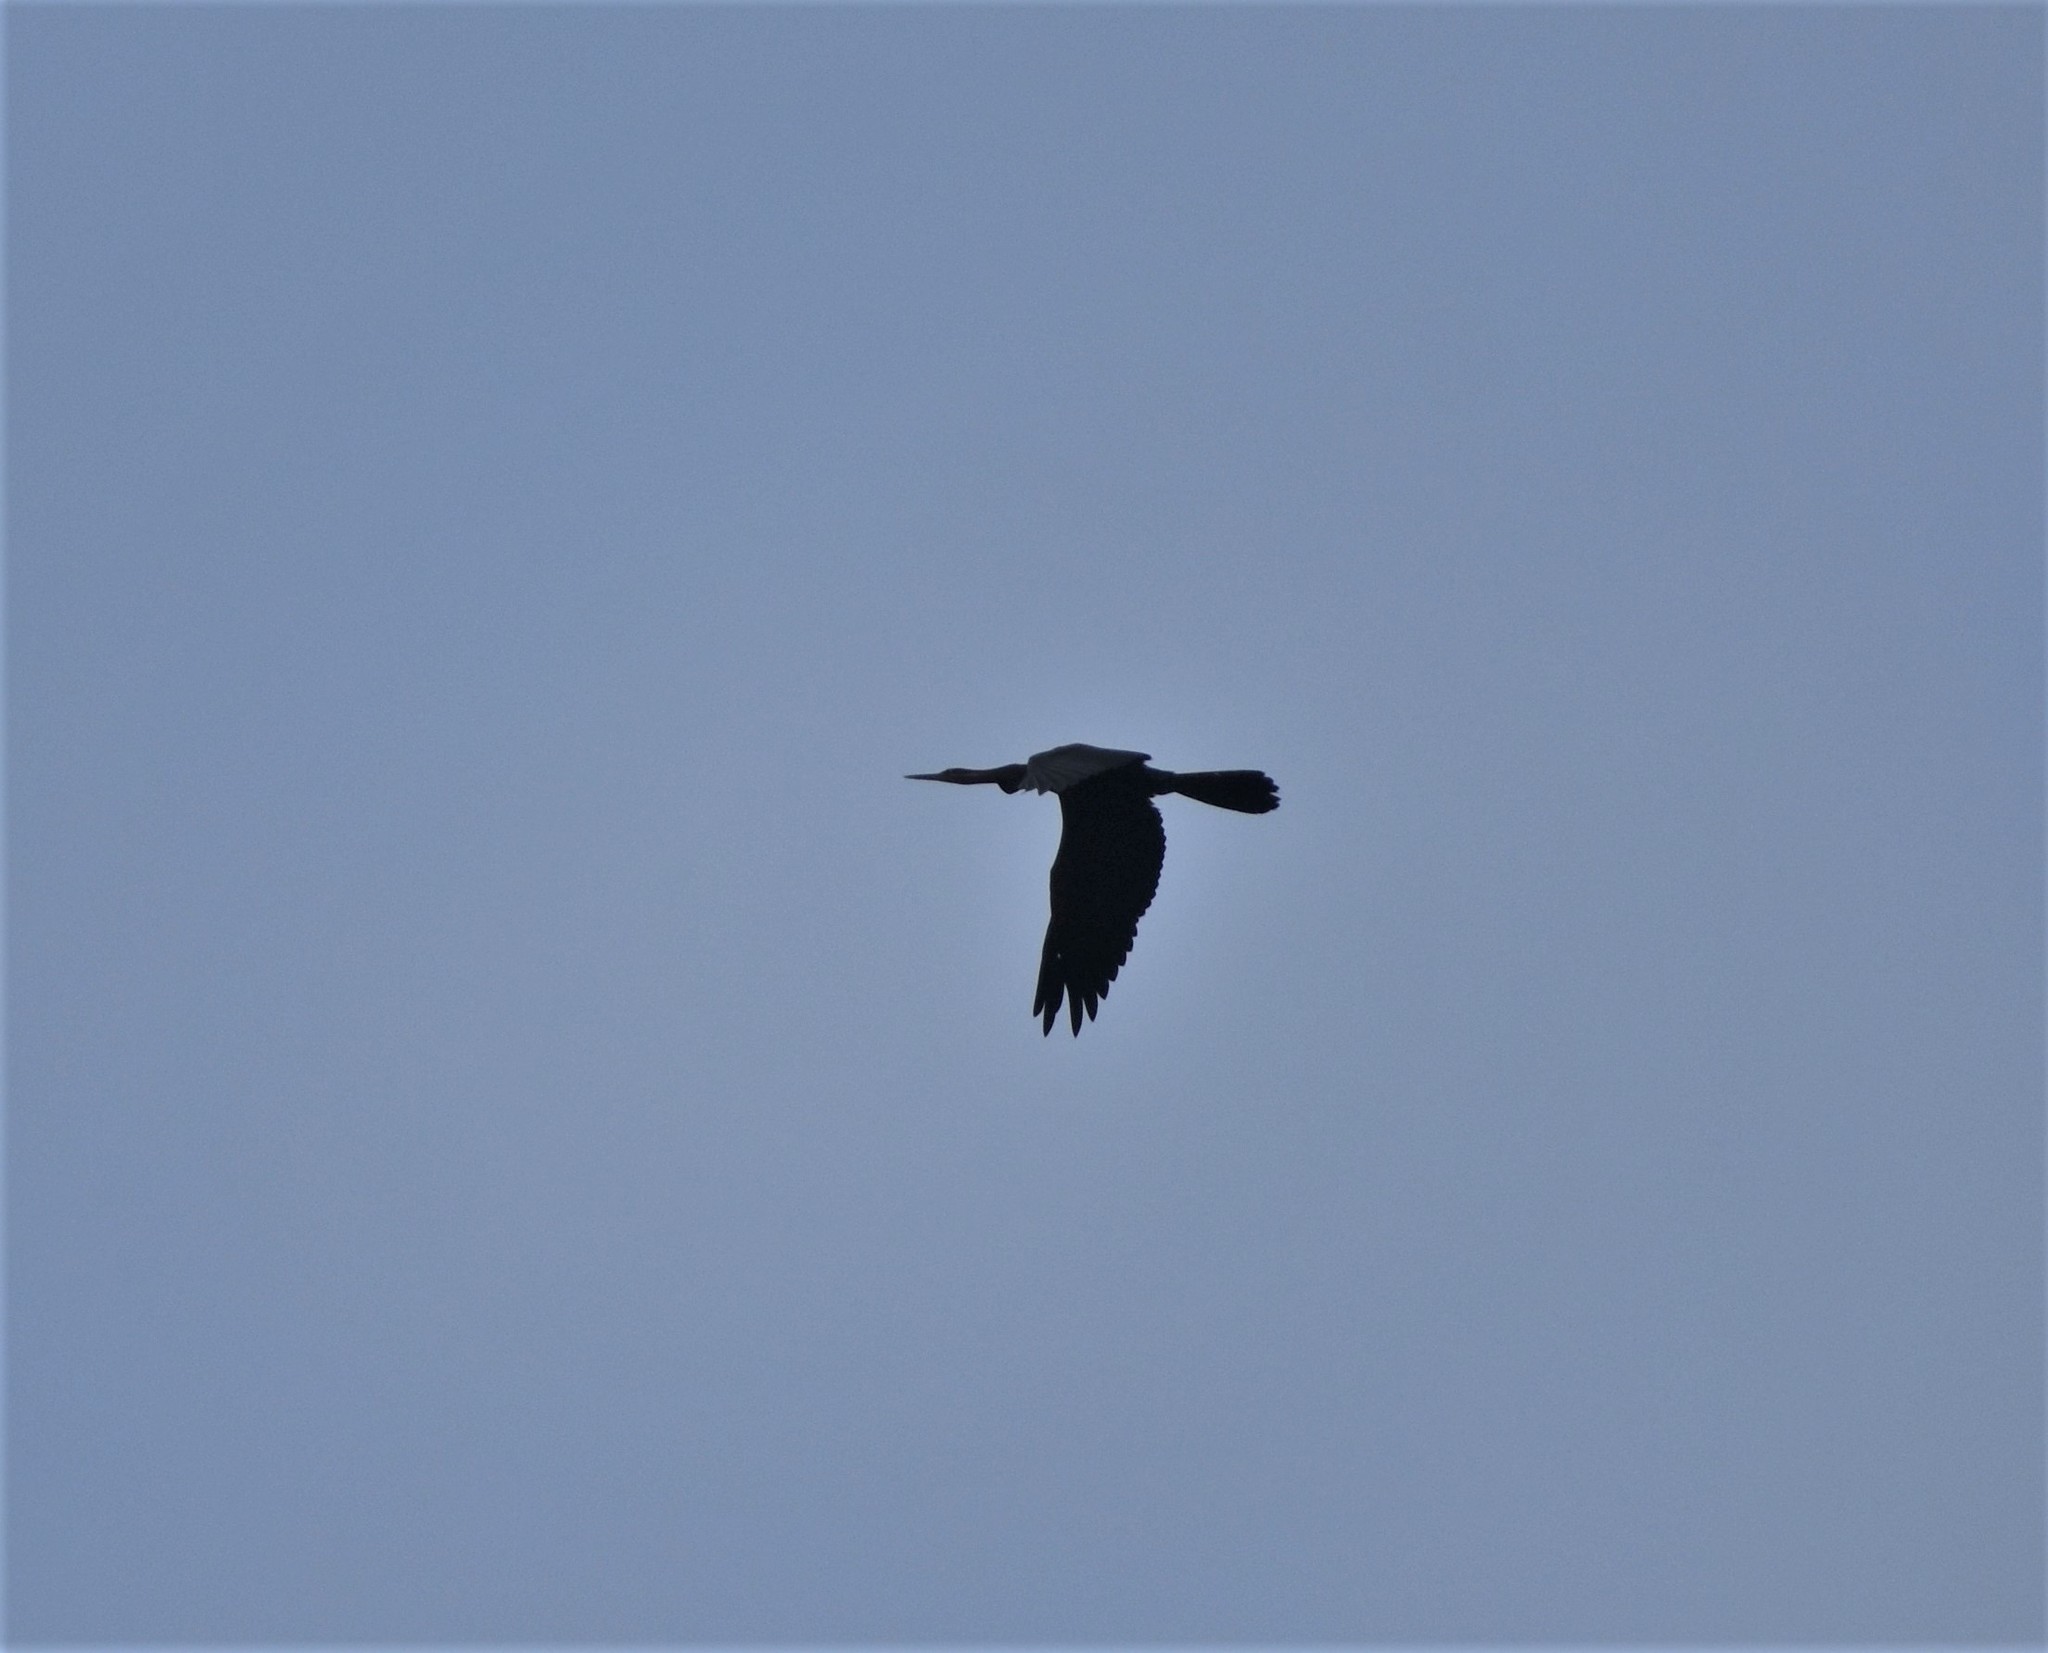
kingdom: Animalia
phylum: Chordata
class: Aves
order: Suliformes
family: Anhingidae
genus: Anhinga
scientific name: Anhinga rufa
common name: African darter
